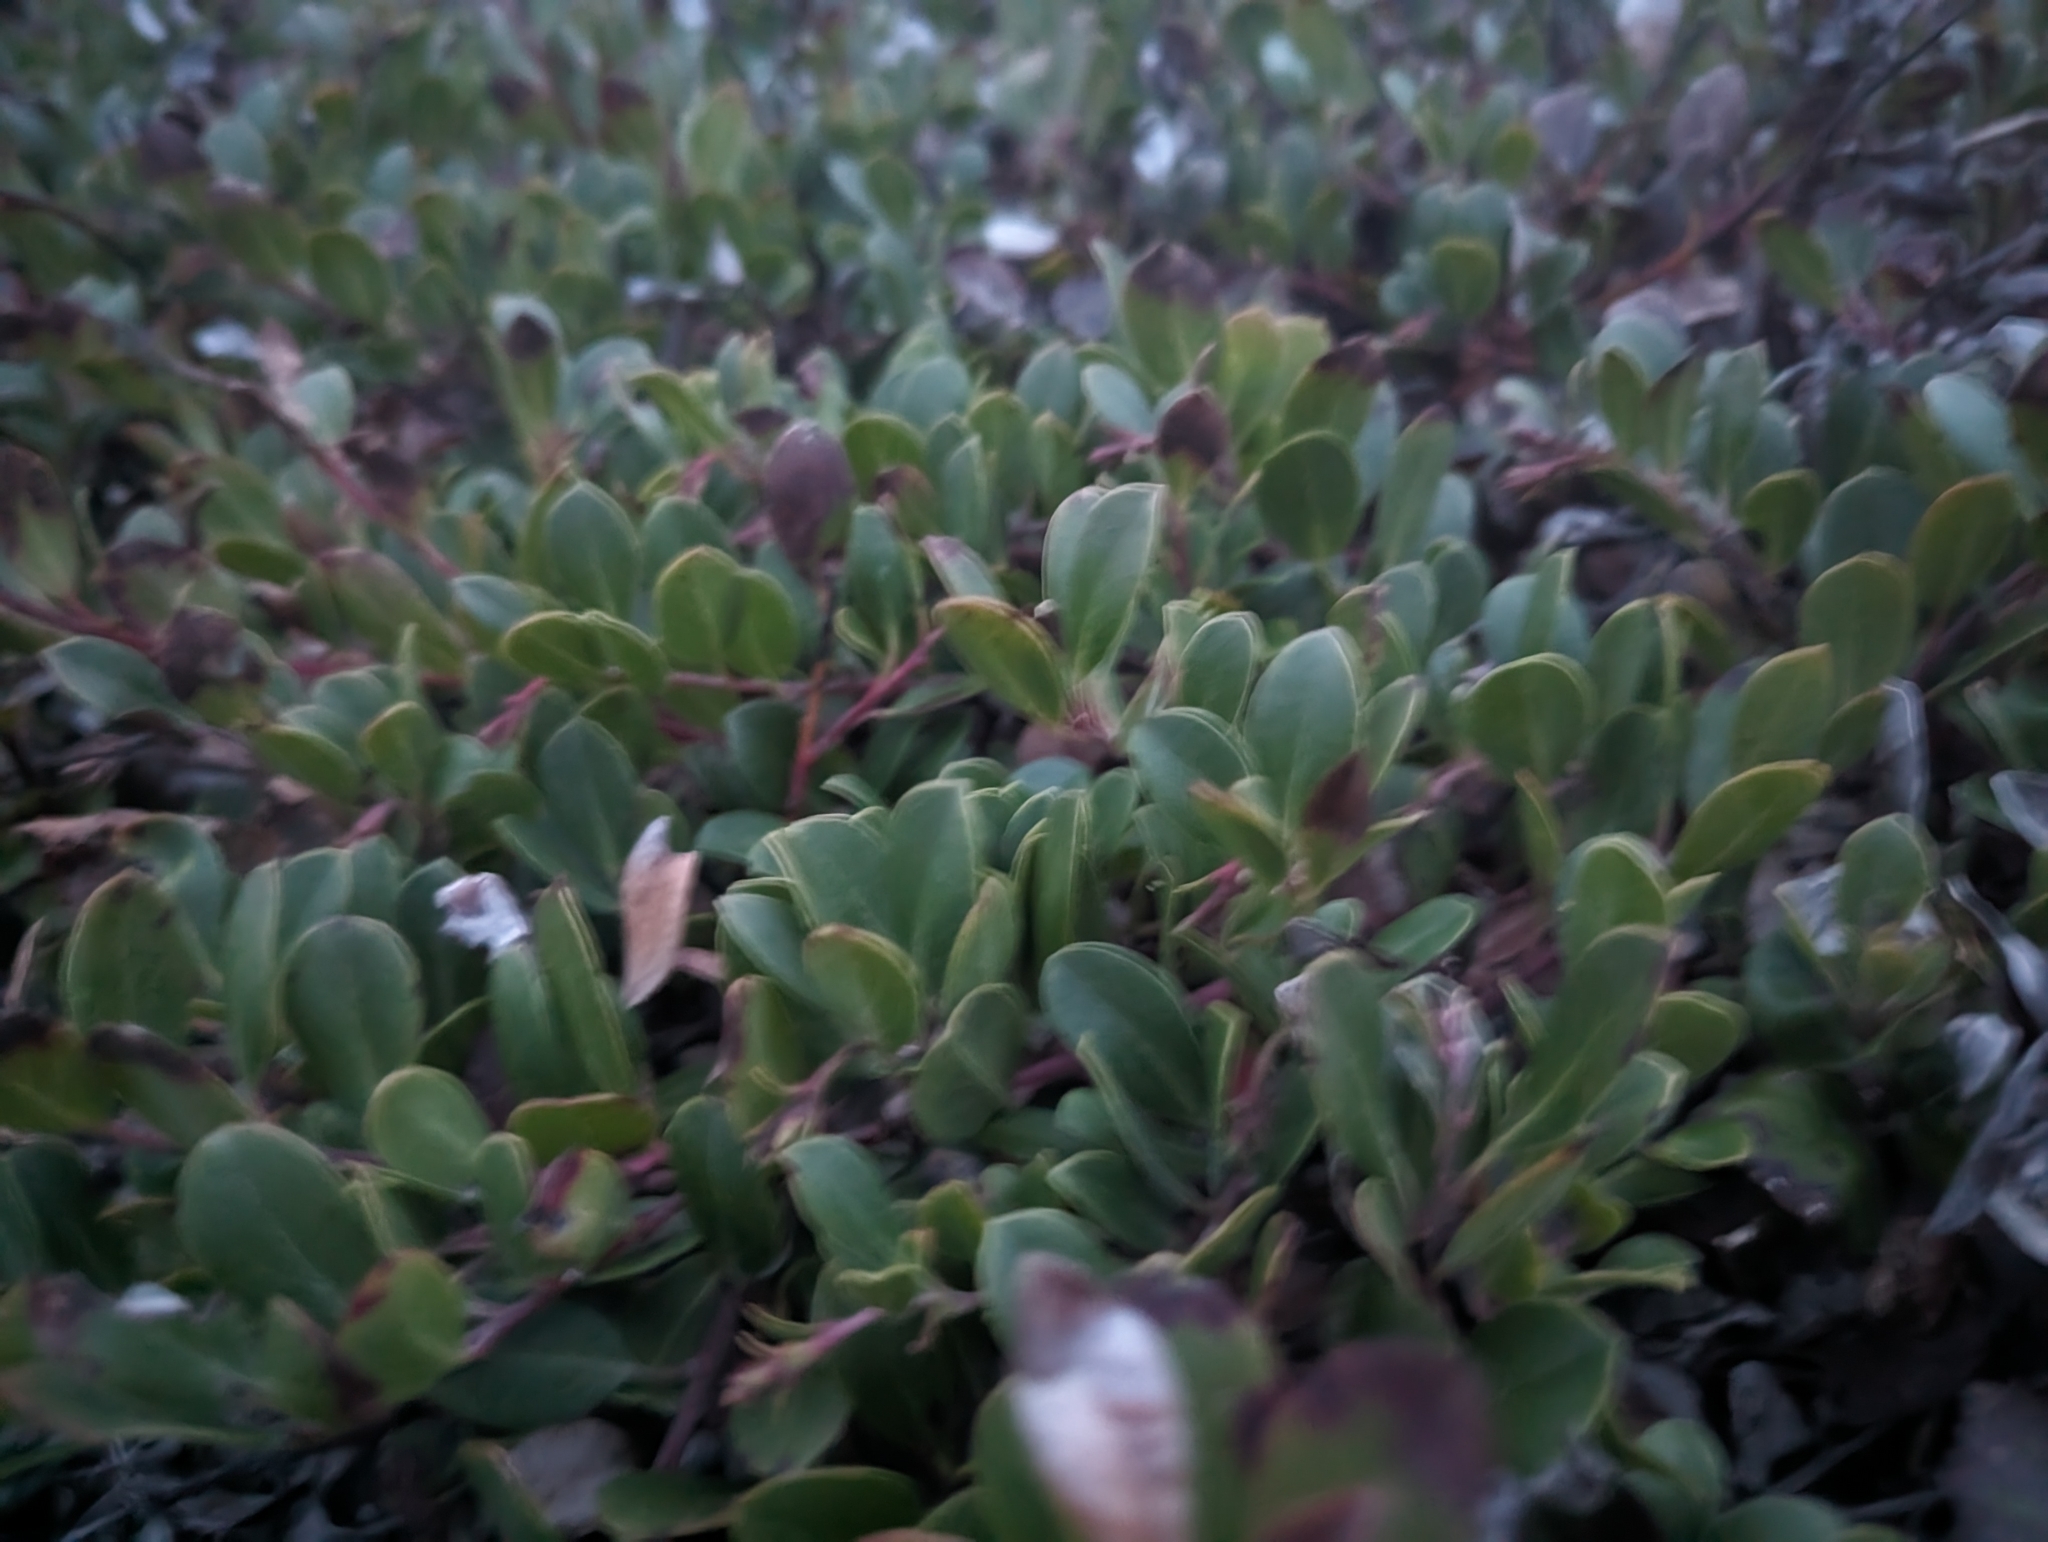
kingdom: Plantae
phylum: Tracheophyta
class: Magnoliopsida
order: Ericales
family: Ericaceae
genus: Arctostaphylos
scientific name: Arctostaphylos uva-ursi
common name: Bearberry
